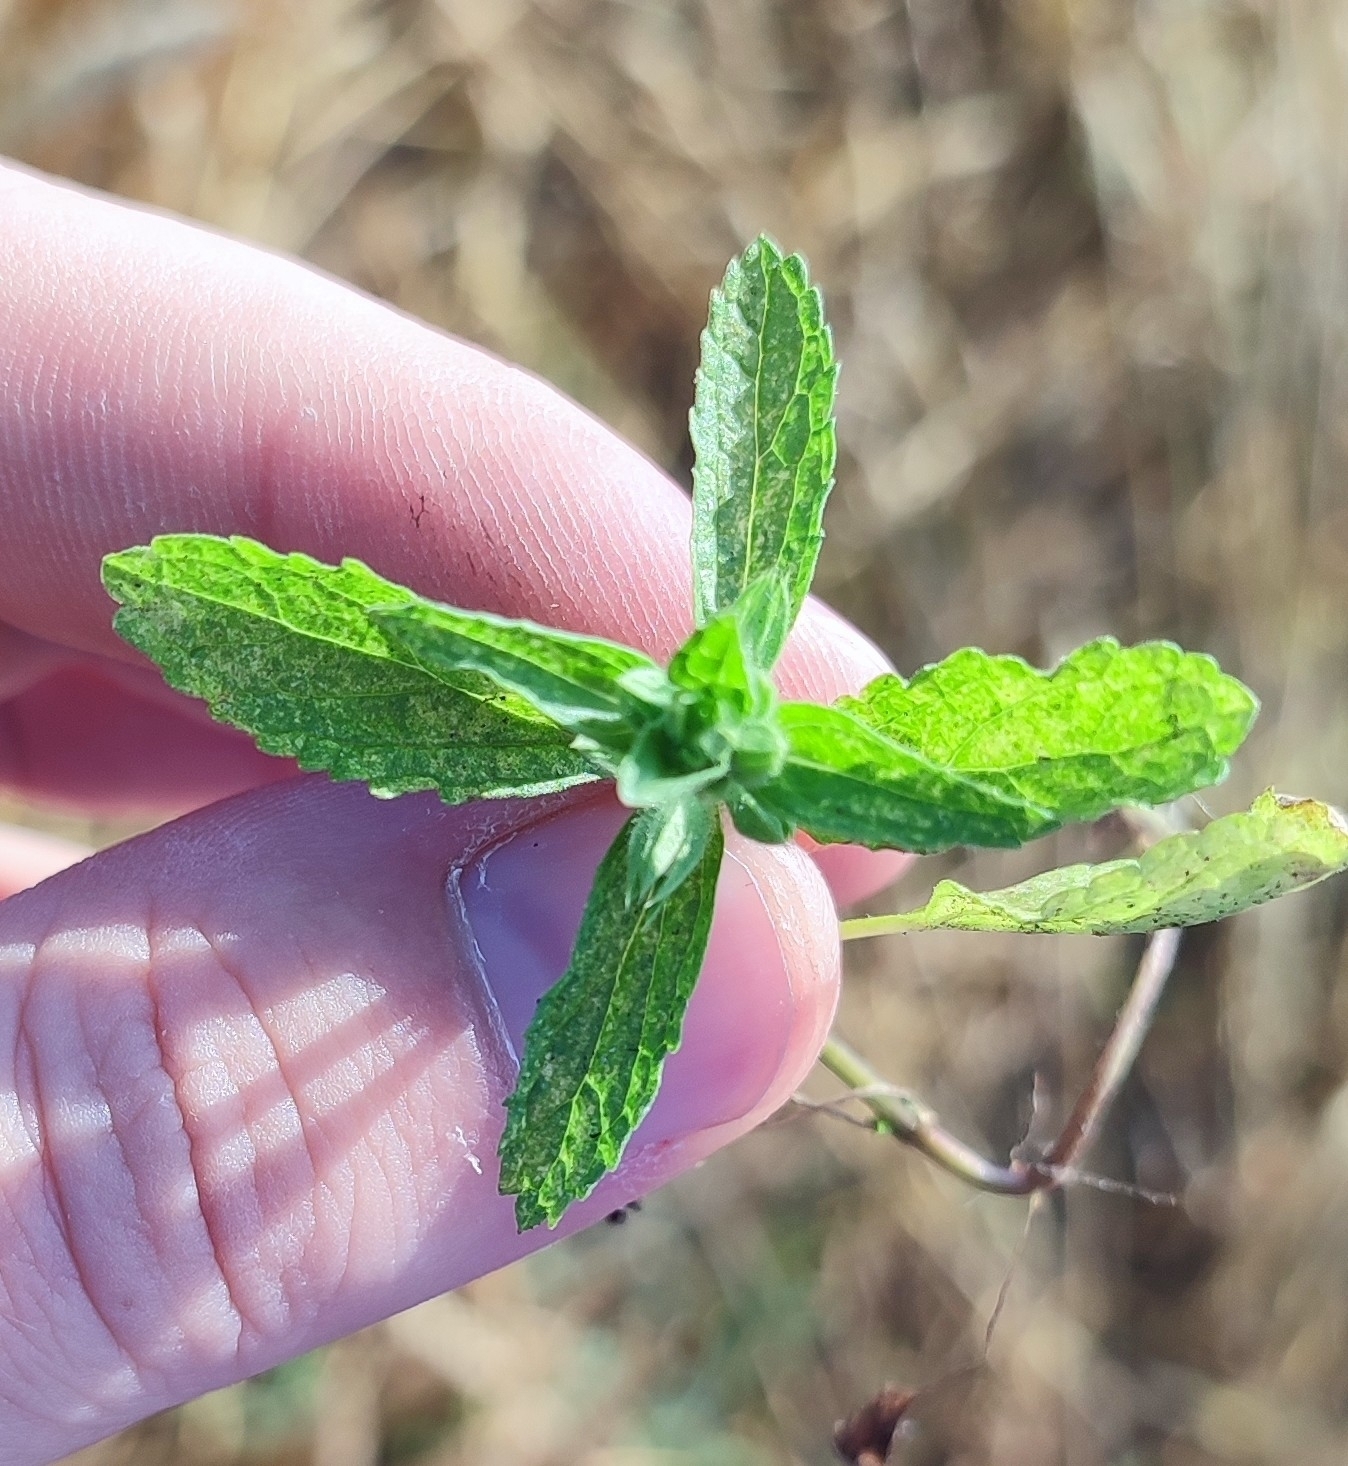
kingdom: Plantae
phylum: Tracheophyta
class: Magnoliopsida
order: Lamiales
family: Lamiaceae
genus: Stachys
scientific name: Stachys annua
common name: Annual yellow-woundwort
